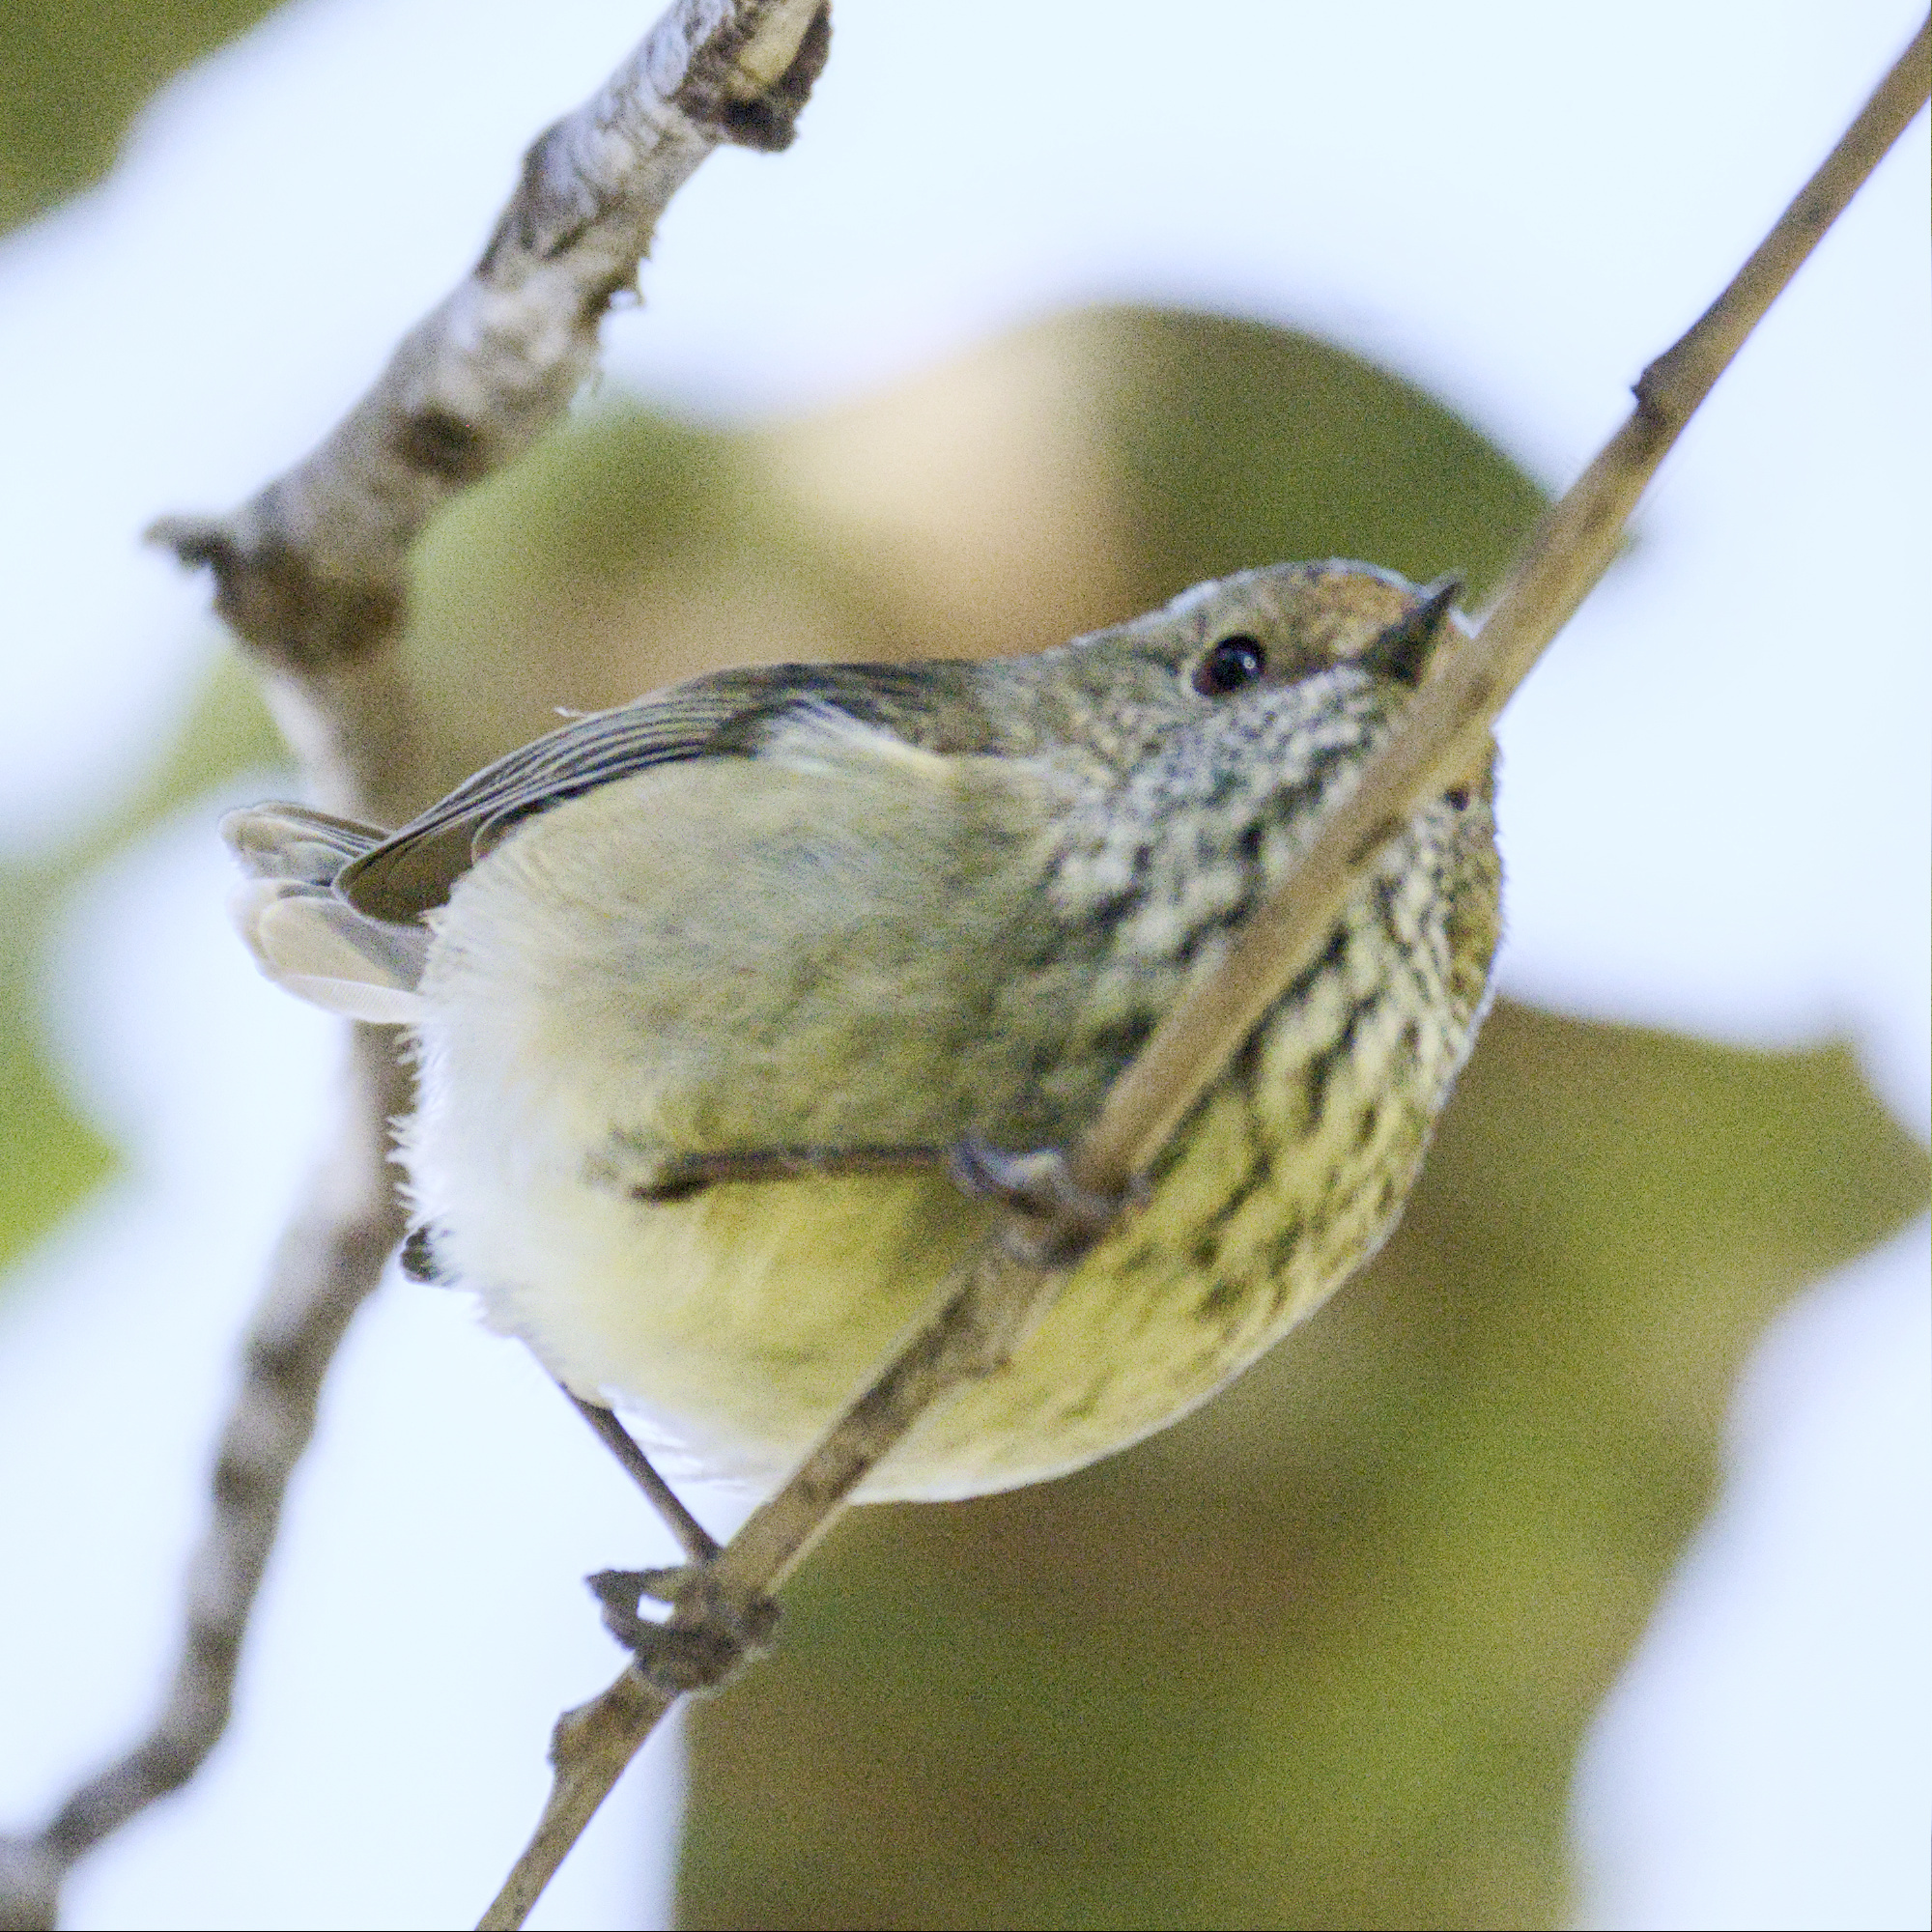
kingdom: Animalia
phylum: Chordata
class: Aves
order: Passeriformes
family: Acanthizidae
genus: Acanthiza
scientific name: Acanthiza pusilla
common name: Brown thornbill
